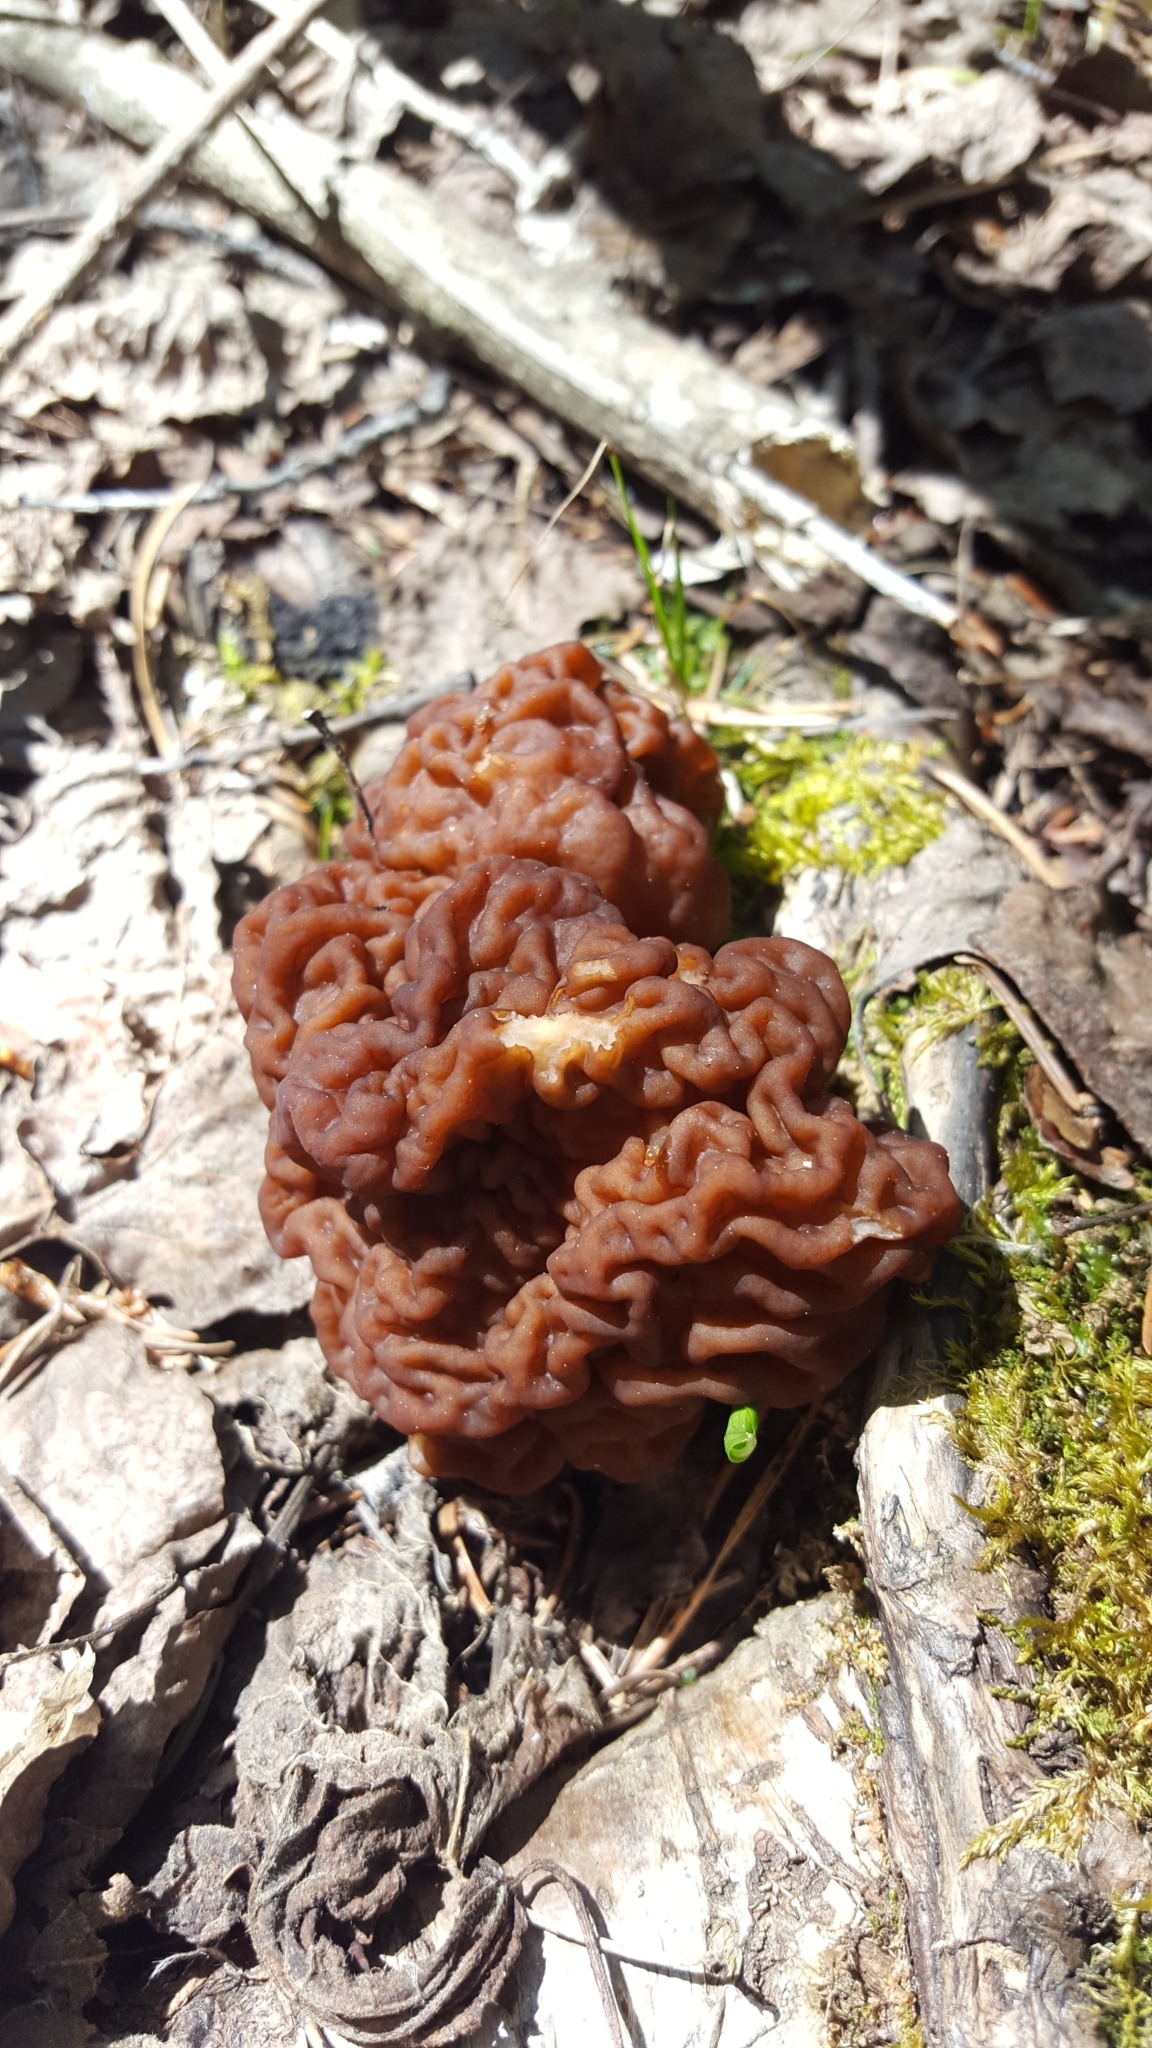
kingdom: Fungi
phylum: Ascomycota
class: Pezizomycetes
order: Pezizales
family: Discinaceae
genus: Gyromitra
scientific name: Gyromitra esculenta
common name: False morel
